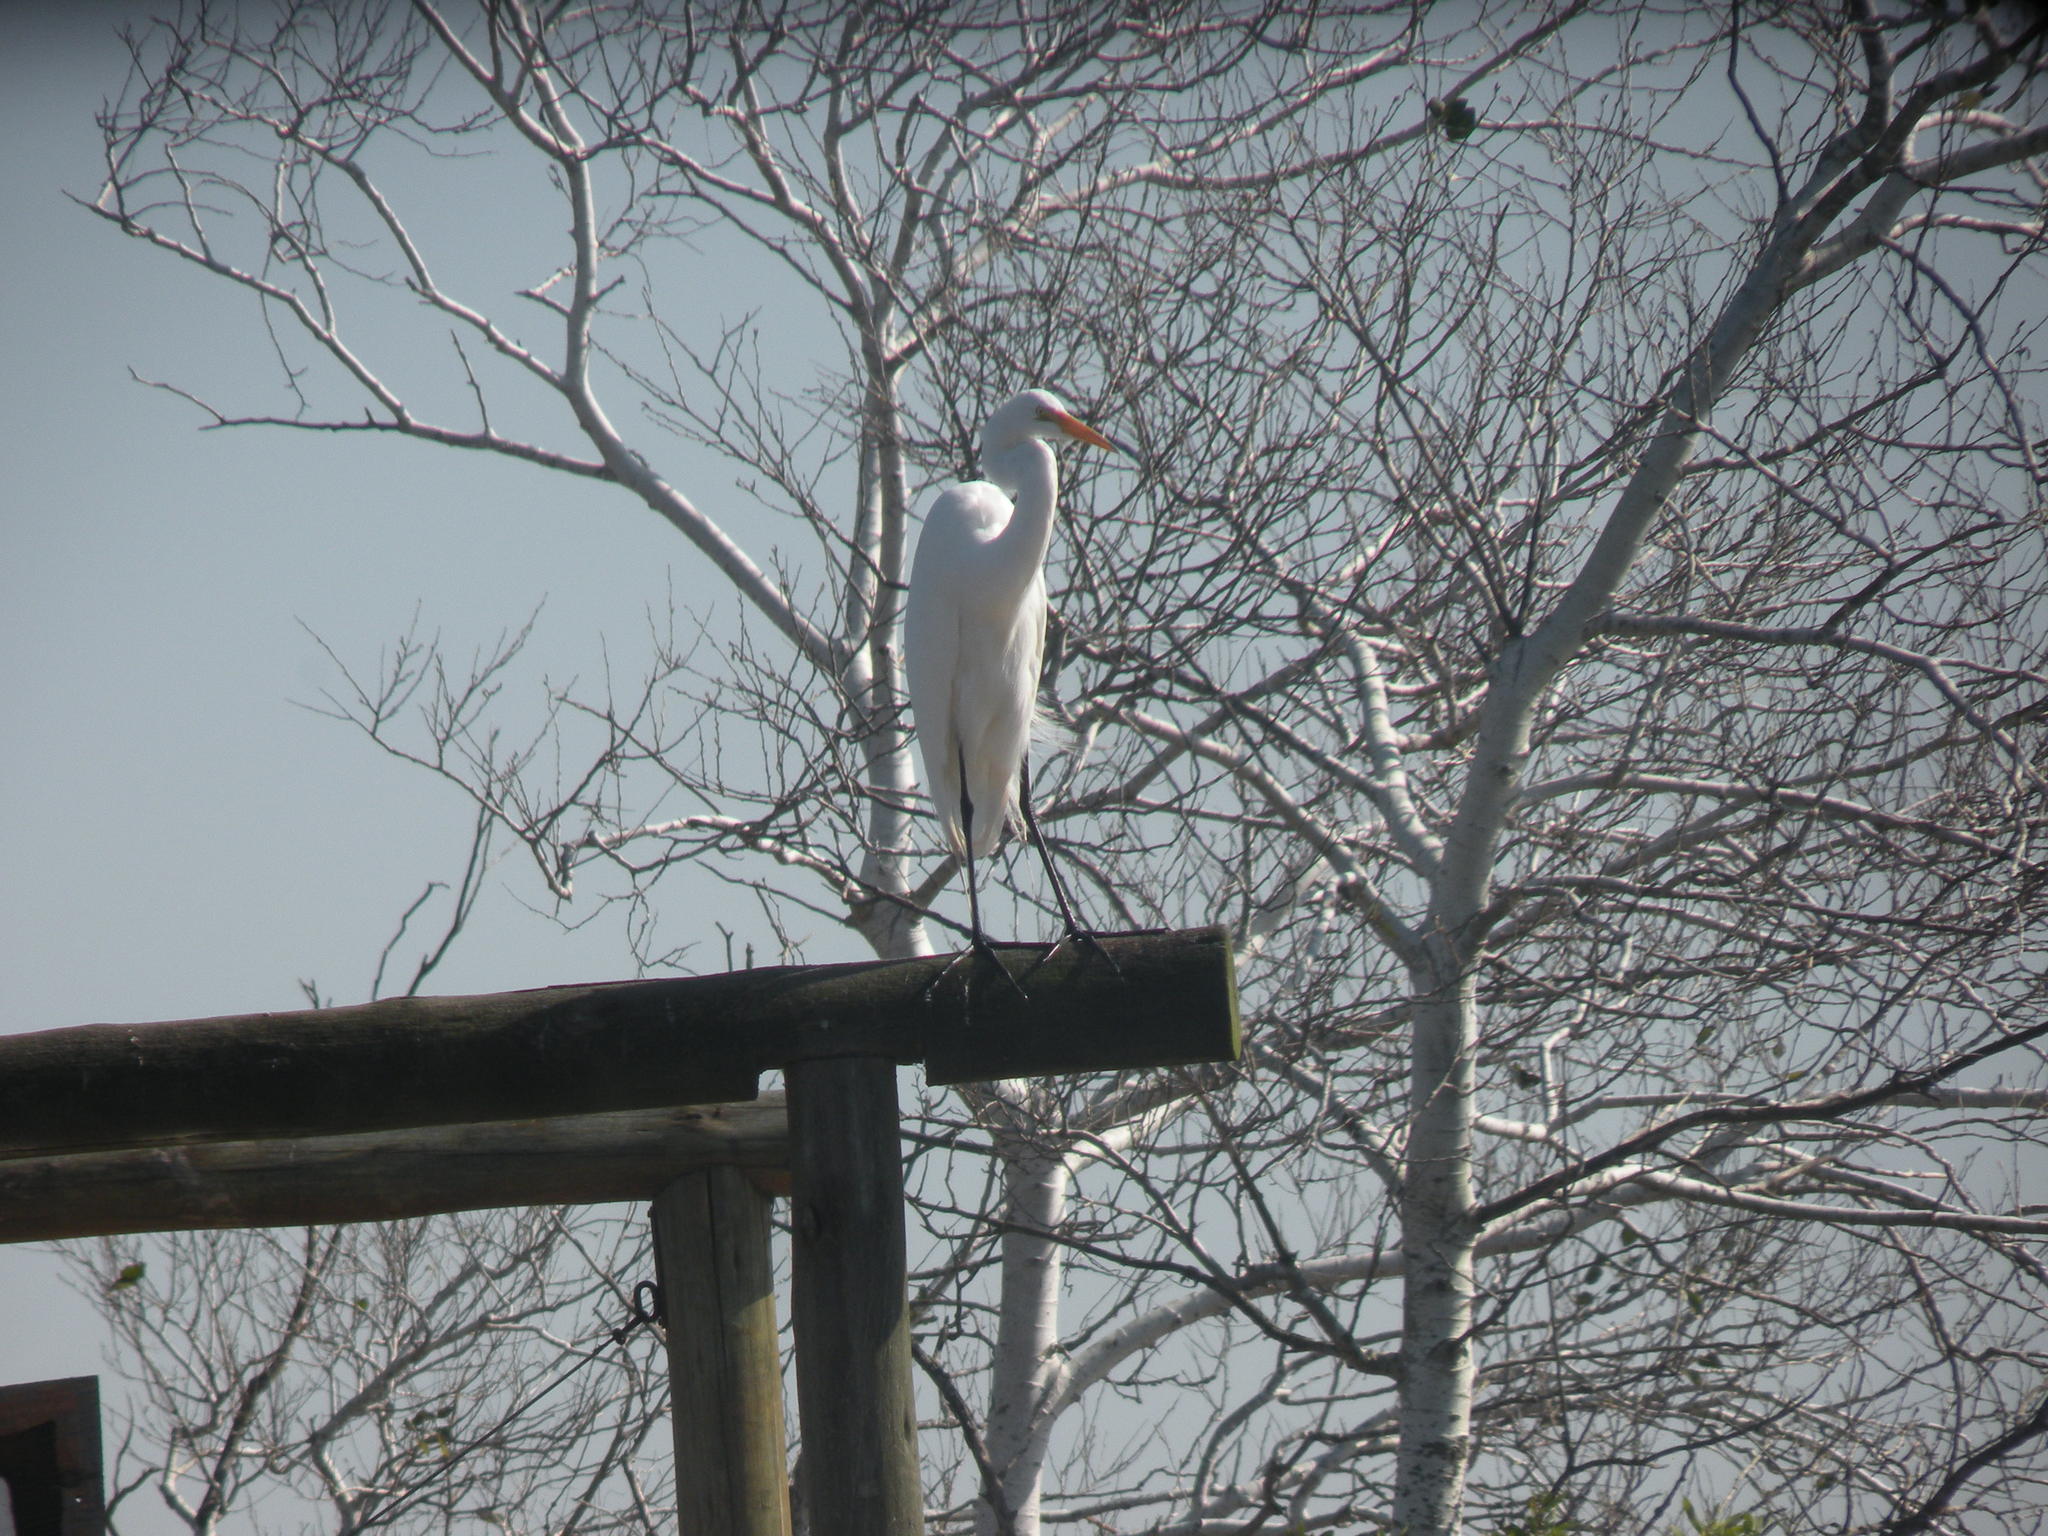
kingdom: Animalia
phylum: Chordata
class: Aves
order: Pelecaniformes
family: Ardeidae
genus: Ardea
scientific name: Ardea alba
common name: Great egret
